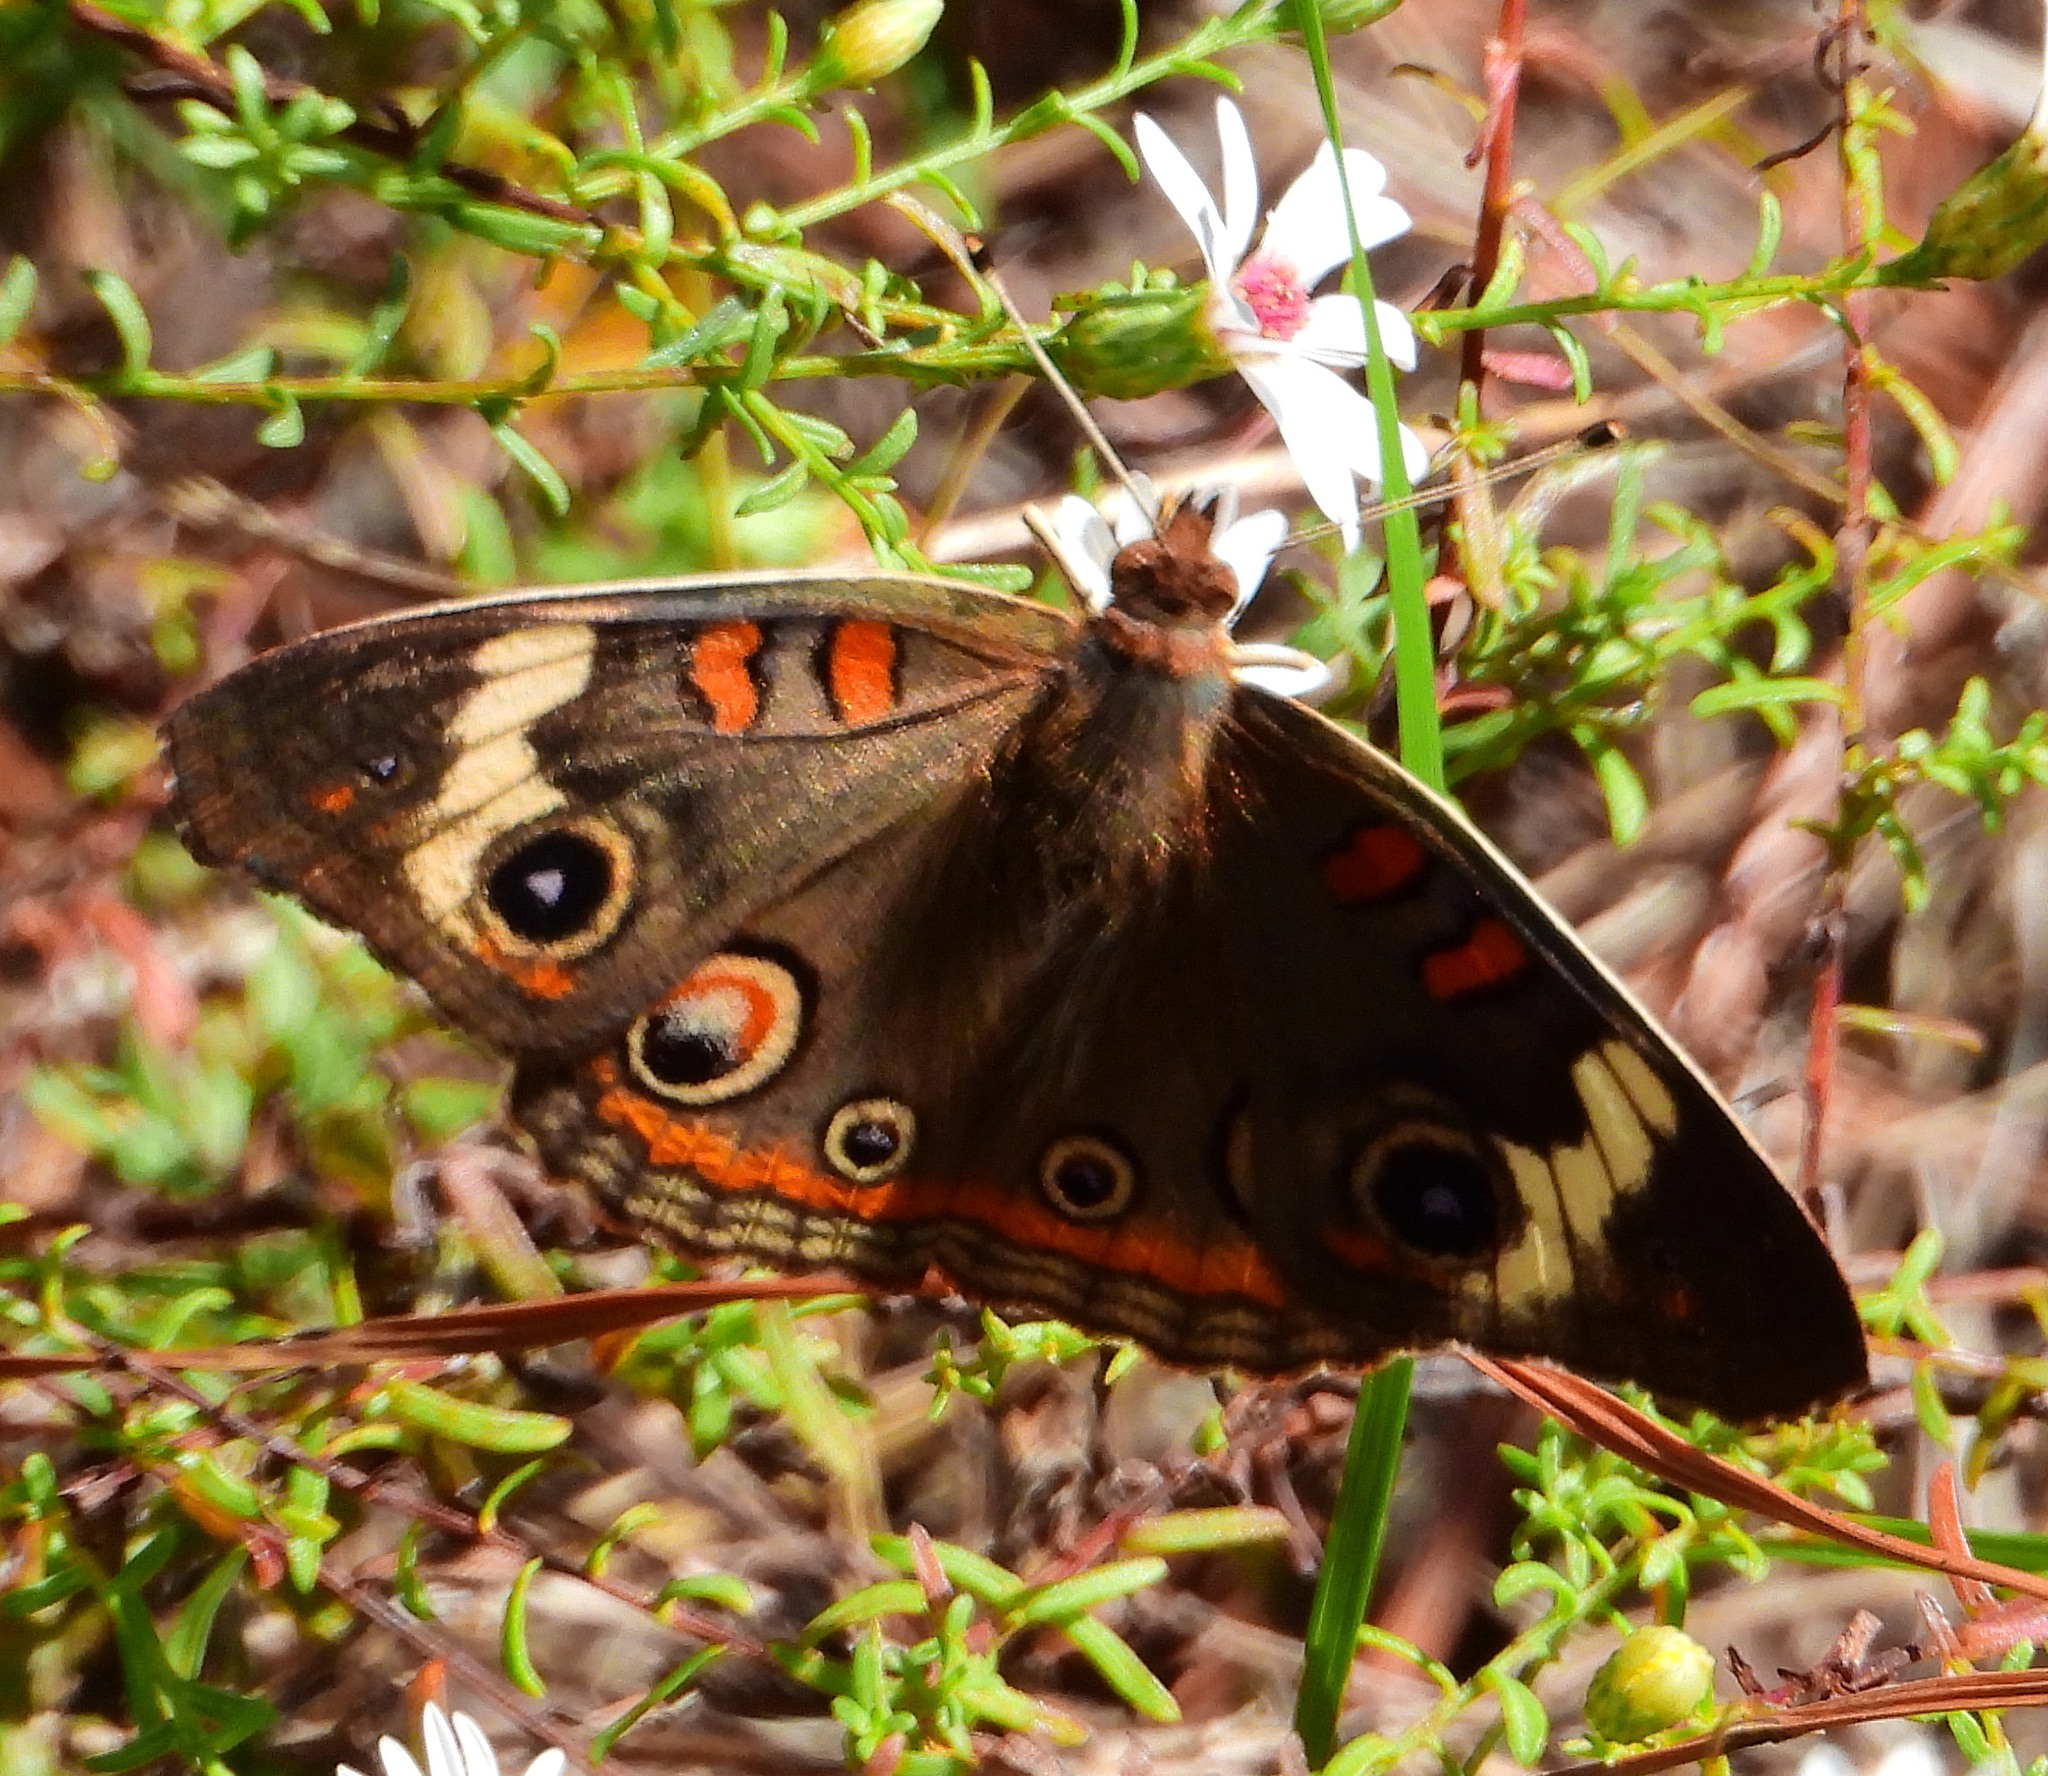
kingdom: Animalia
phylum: Arthropoda
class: Insecta
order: Lepidoptera
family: Nymphalidae
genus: Junonia
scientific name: Junonia coenia
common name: Common buckeye
